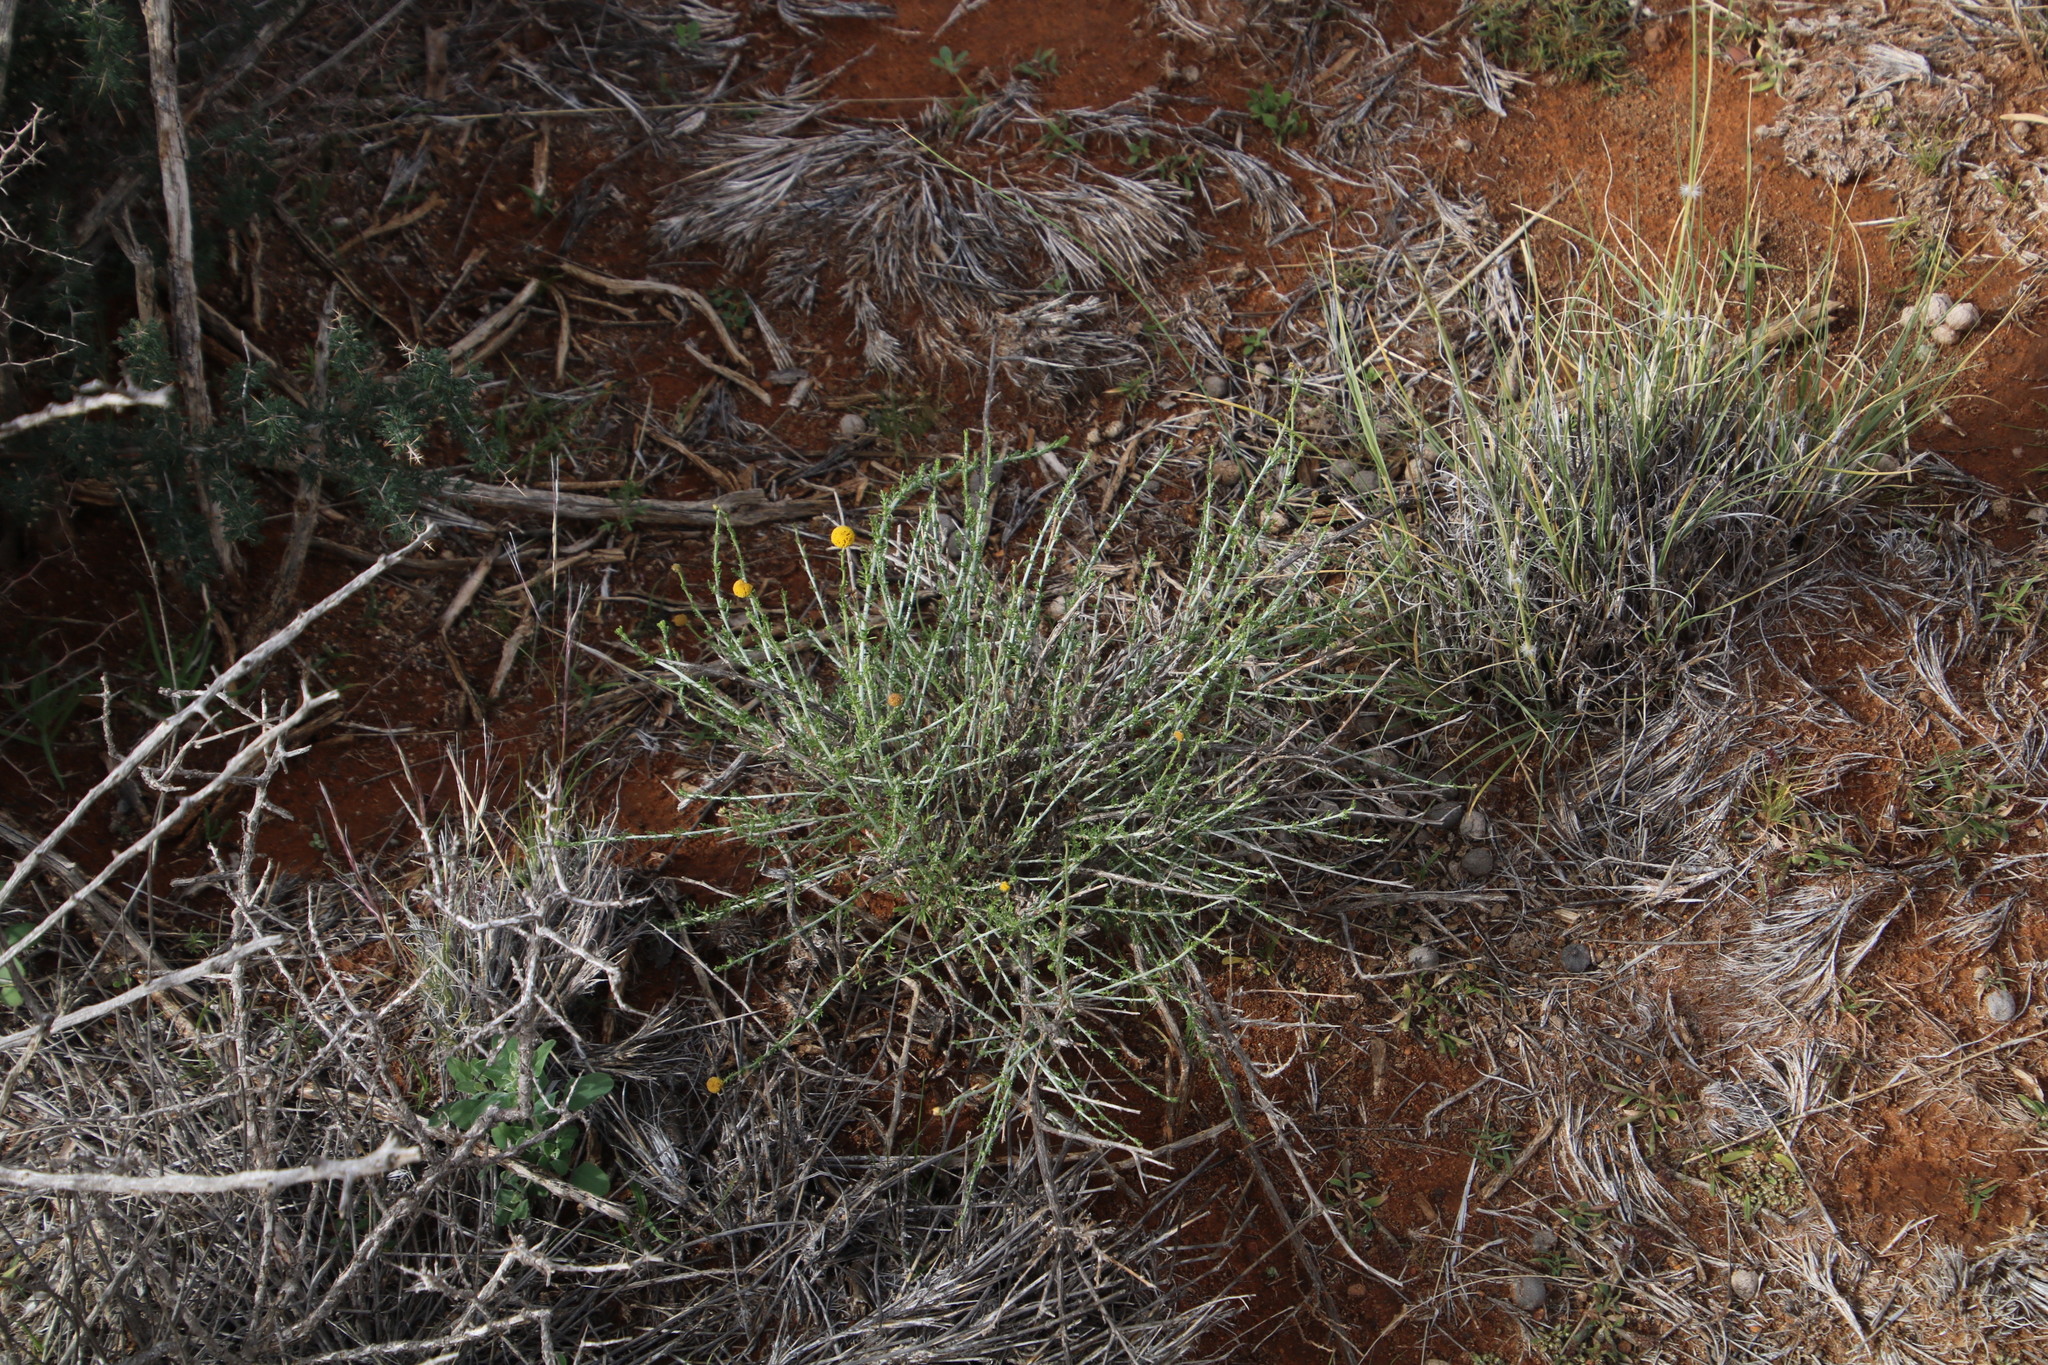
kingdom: Plantae
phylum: Tracheophyta
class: Magnoliopsida
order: Asterales
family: Asteraceae
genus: Pentzia
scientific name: Pentzia globosa
